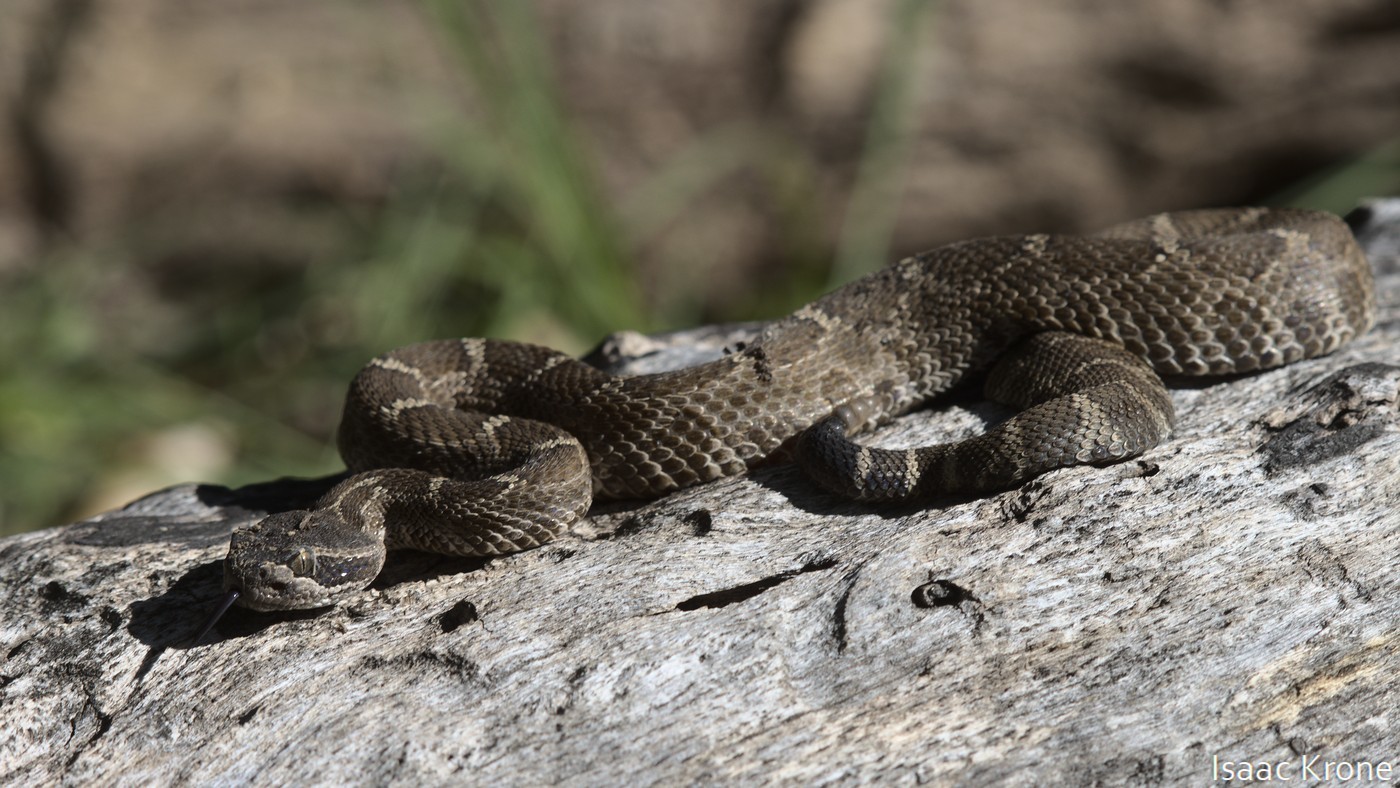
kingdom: Animalia
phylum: Chordata
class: Squamata
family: Viperidae
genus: Crotalus
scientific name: Crotalus oreganus
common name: Abyssus
